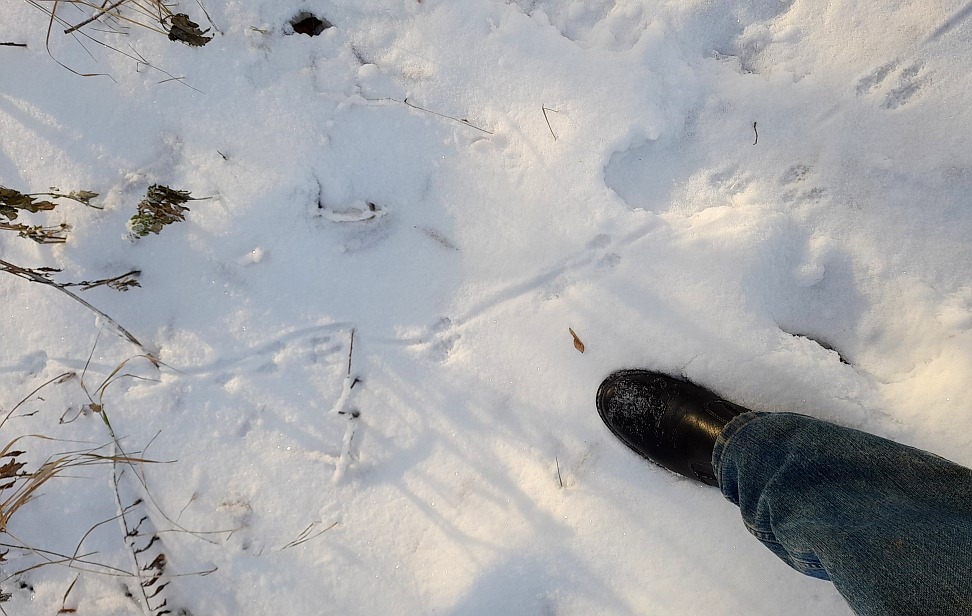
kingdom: Animalia
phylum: Chordata
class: Mammalia
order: Rodentia
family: Muridae
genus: Rattus
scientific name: Rattus norvegicus
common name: Brown rat
